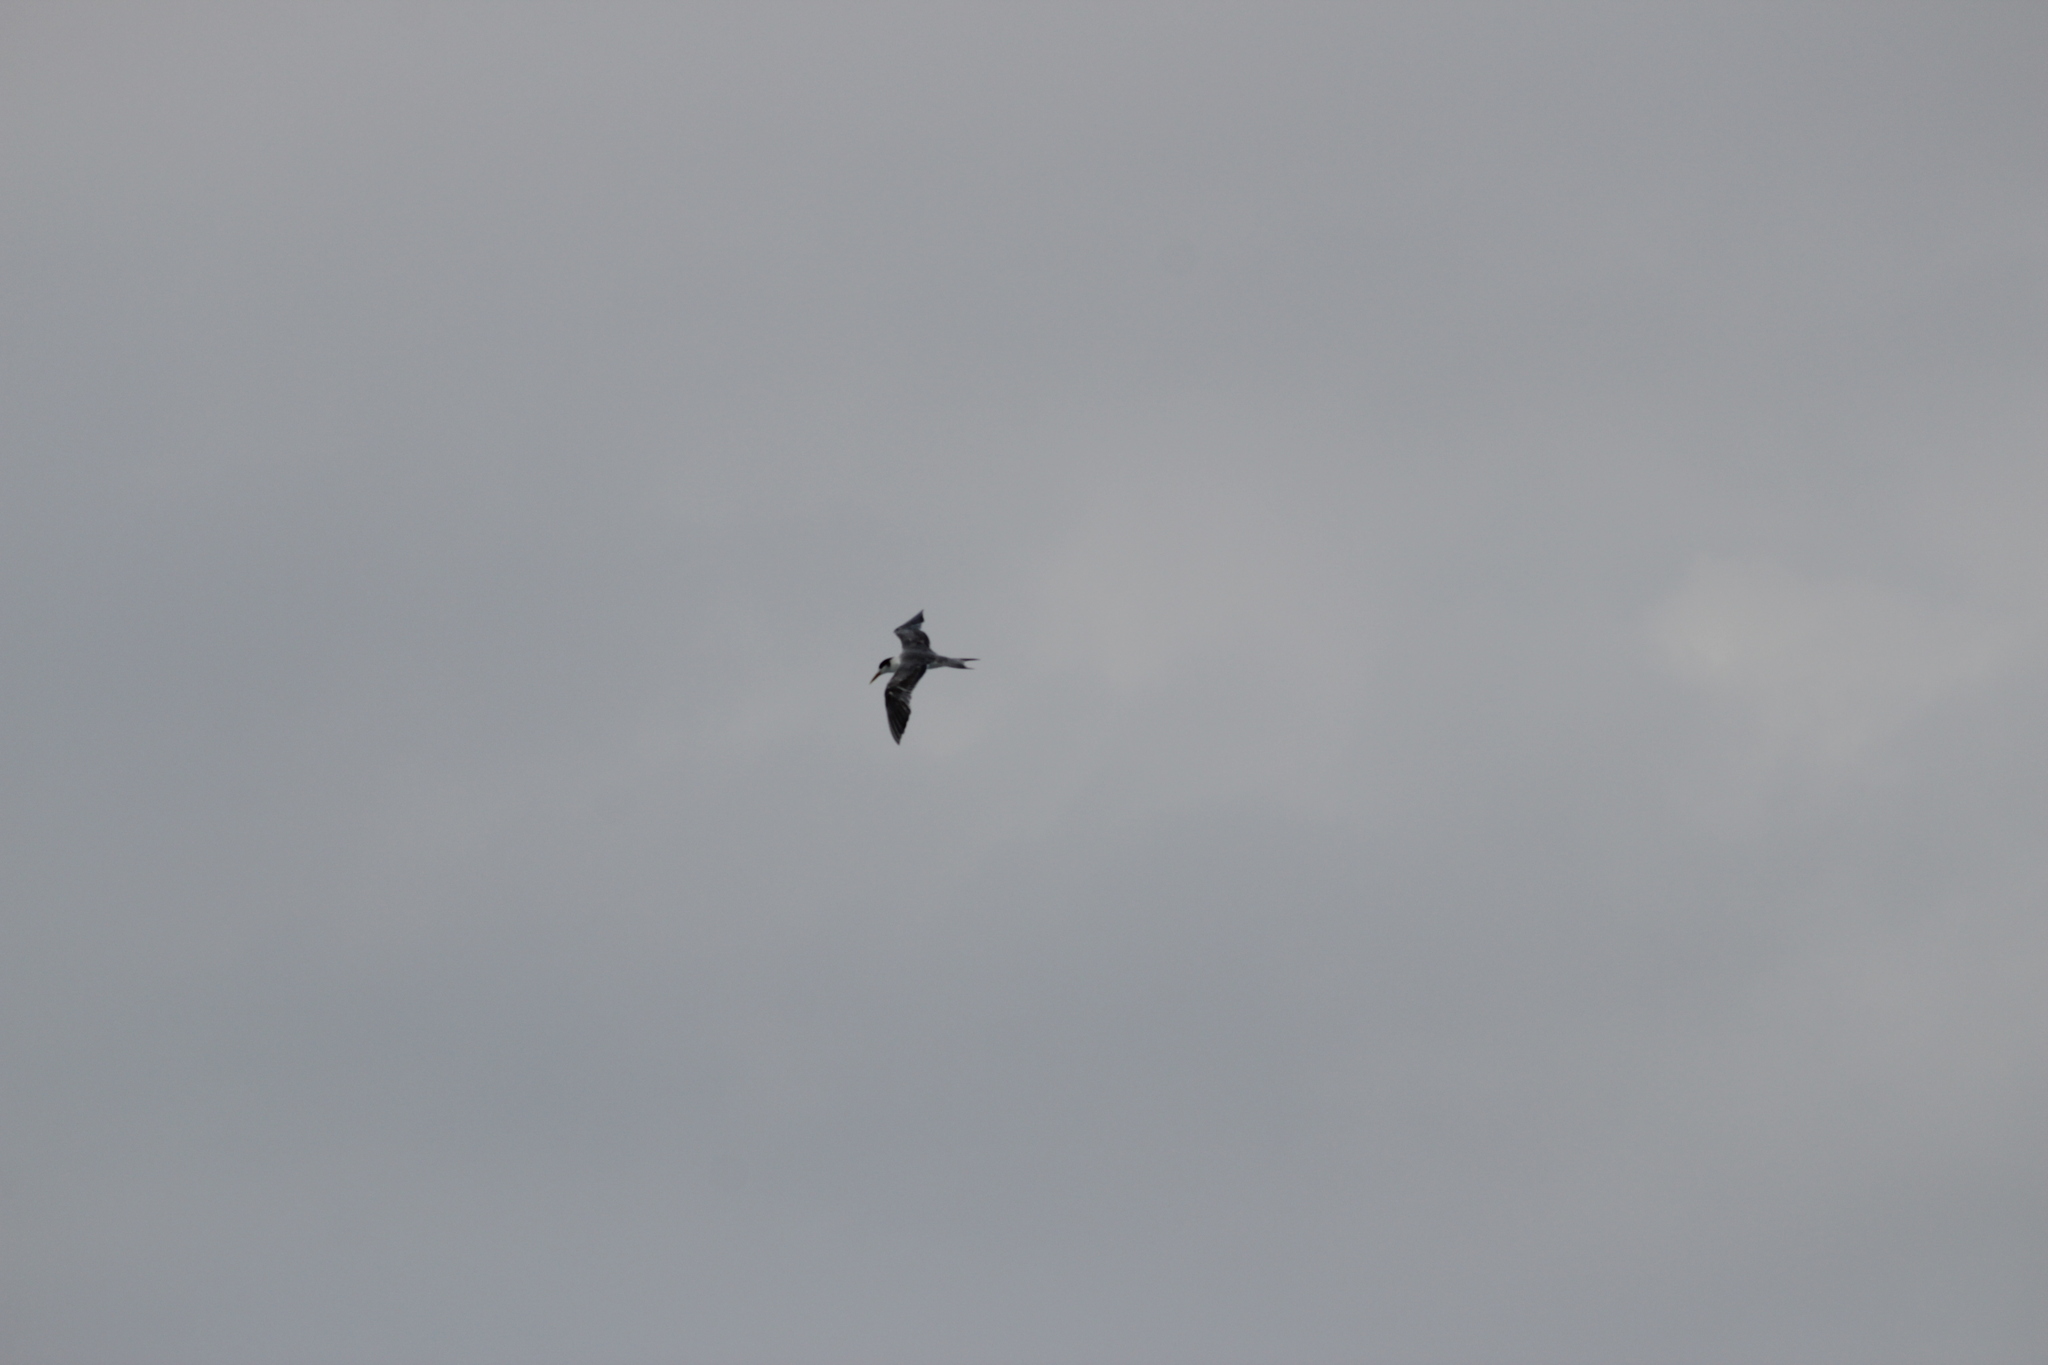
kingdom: Animalia
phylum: Chordata
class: Aves
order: Charadriiformes
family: Laridae
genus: Thalasseus
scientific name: Thalasseus bergii
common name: Greater crested tern
